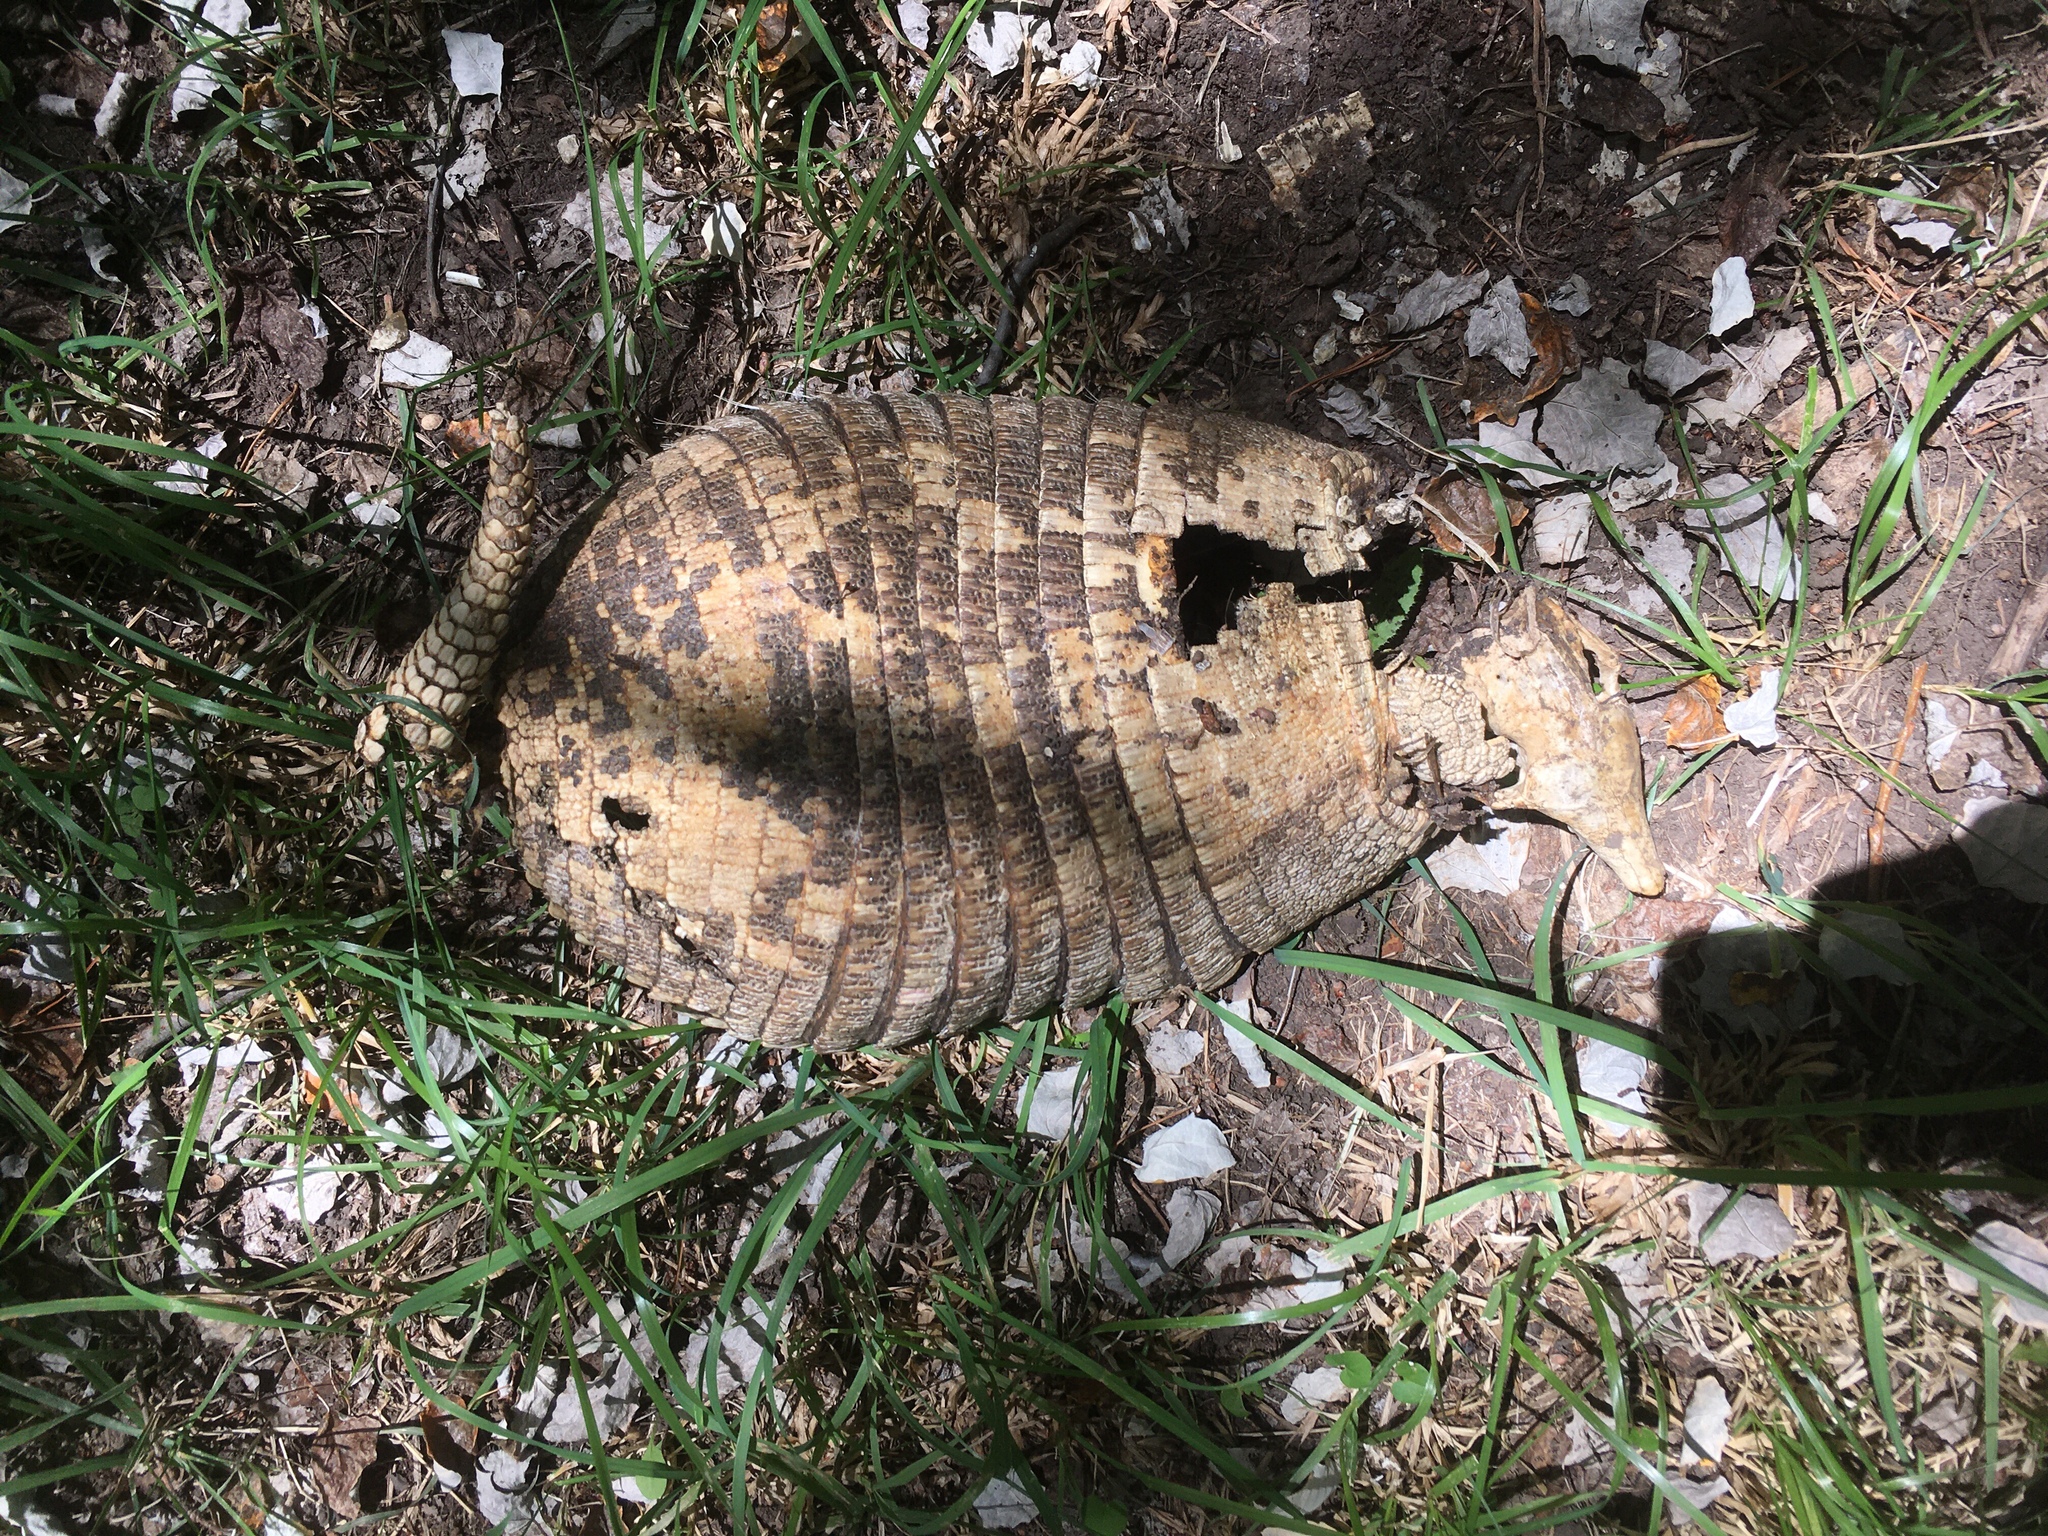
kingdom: Animalia
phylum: Chordata
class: Mammalia
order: Cingulata
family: Dasypodidae
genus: Chaetophractus
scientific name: Chaetophractus villosus
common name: Big hairy armadillo
